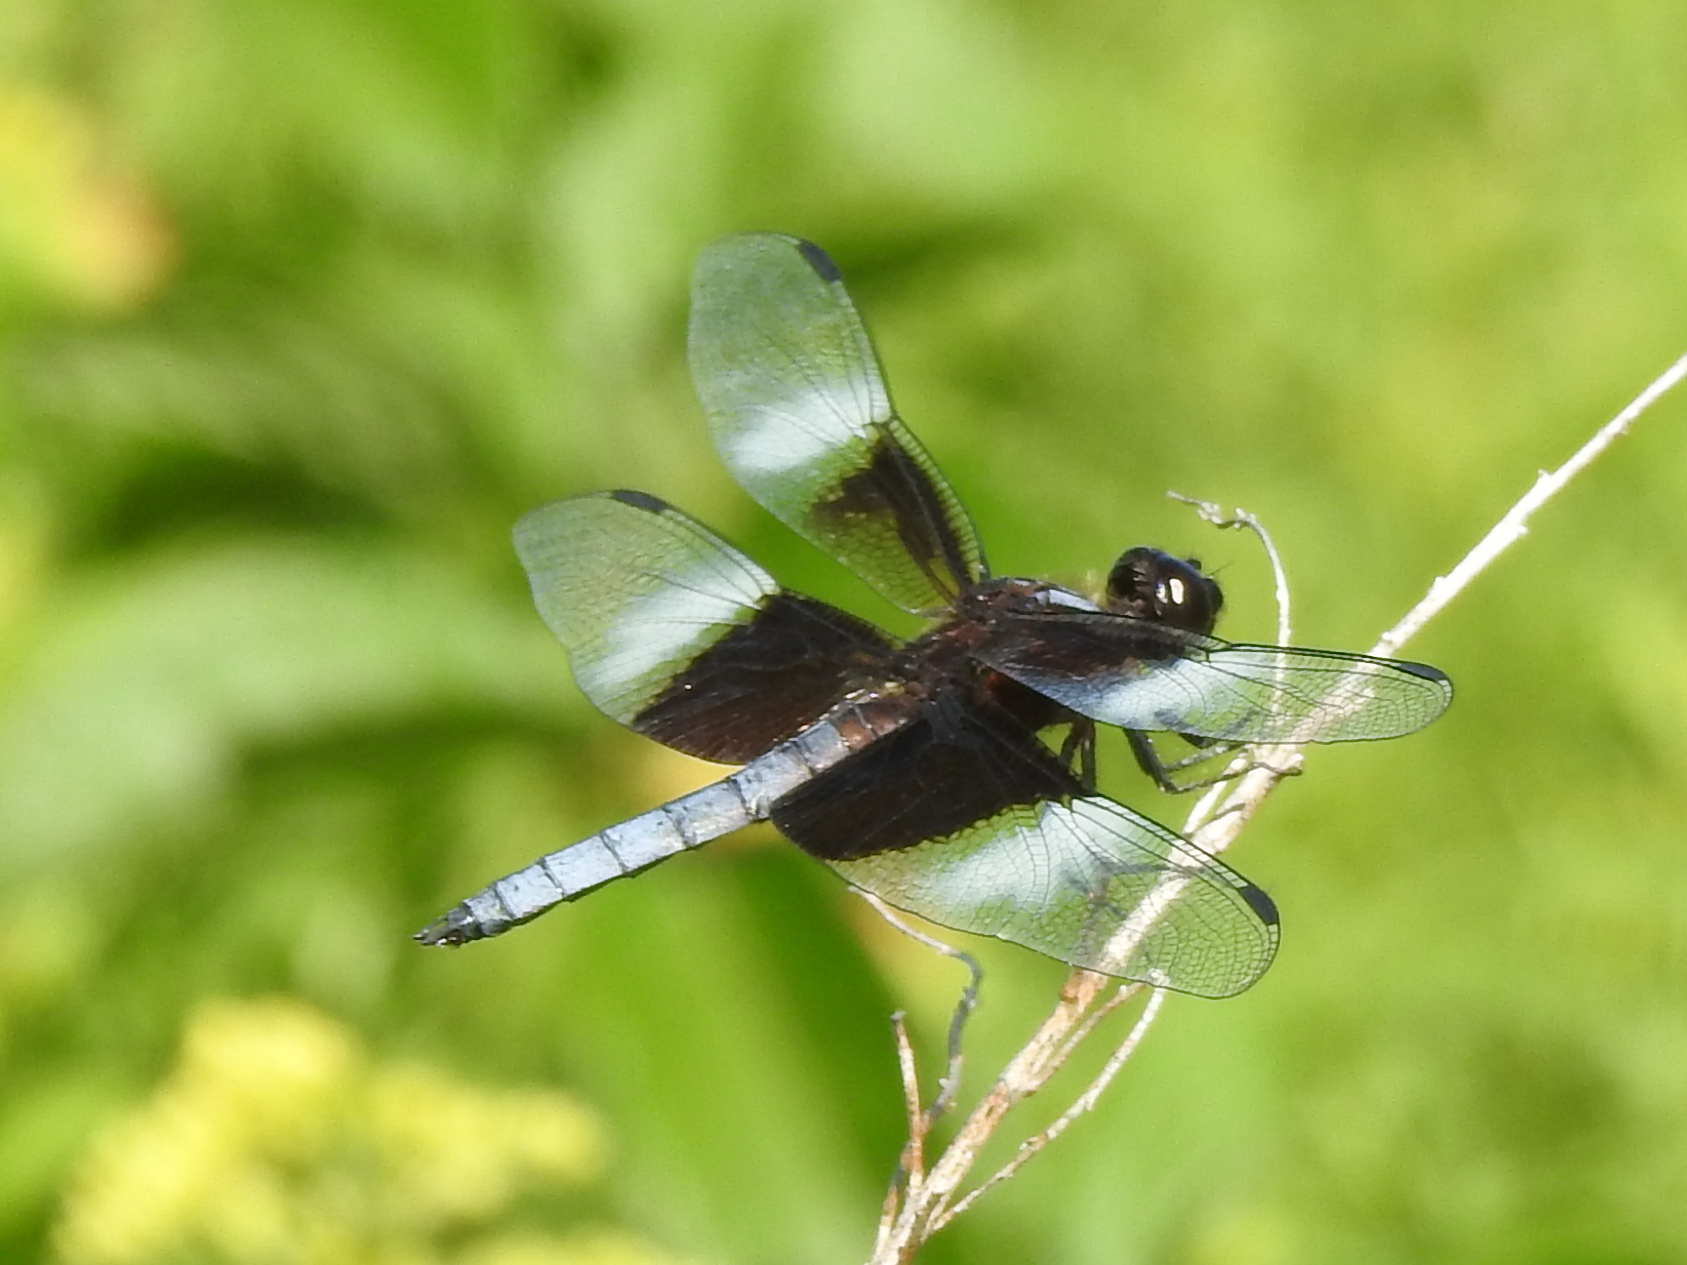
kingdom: Animalia
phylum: Arthropoda
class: Insecta
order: Odonata
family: Libellulidae
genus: Libellula
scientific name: Libellula luctuosa
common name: Widow skimmer
